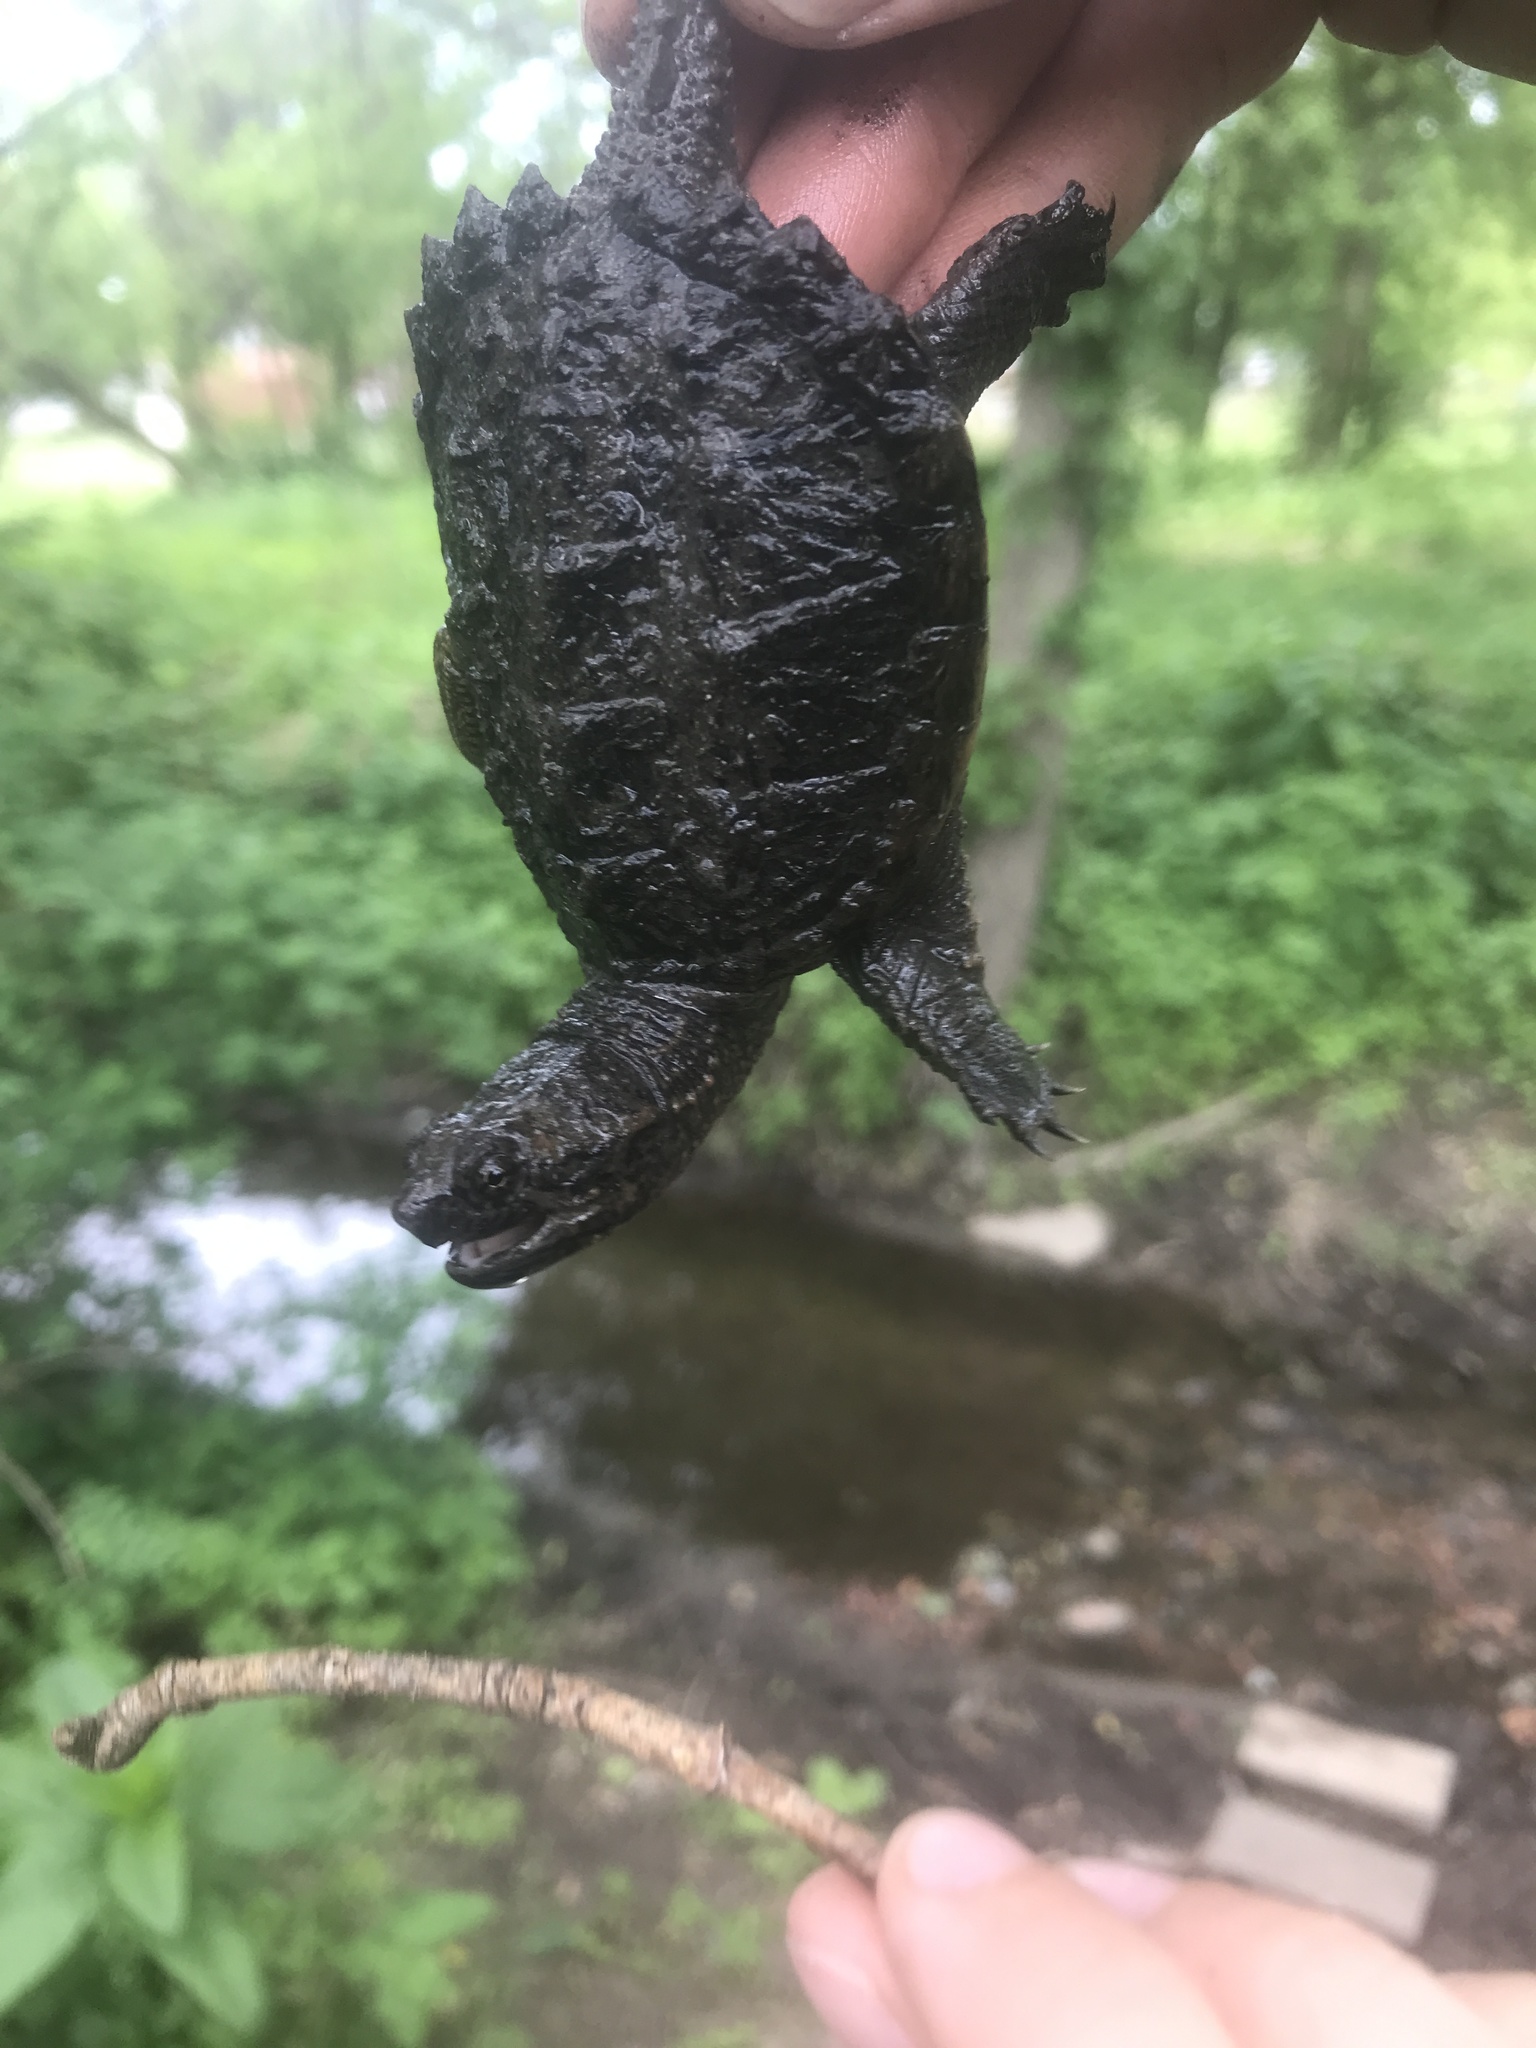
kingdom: Animalia
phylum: Chordata
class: Testudines
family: Chelydridae
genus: Chelydra
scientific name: Chelydra serpentina
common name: Common snapping turtle
